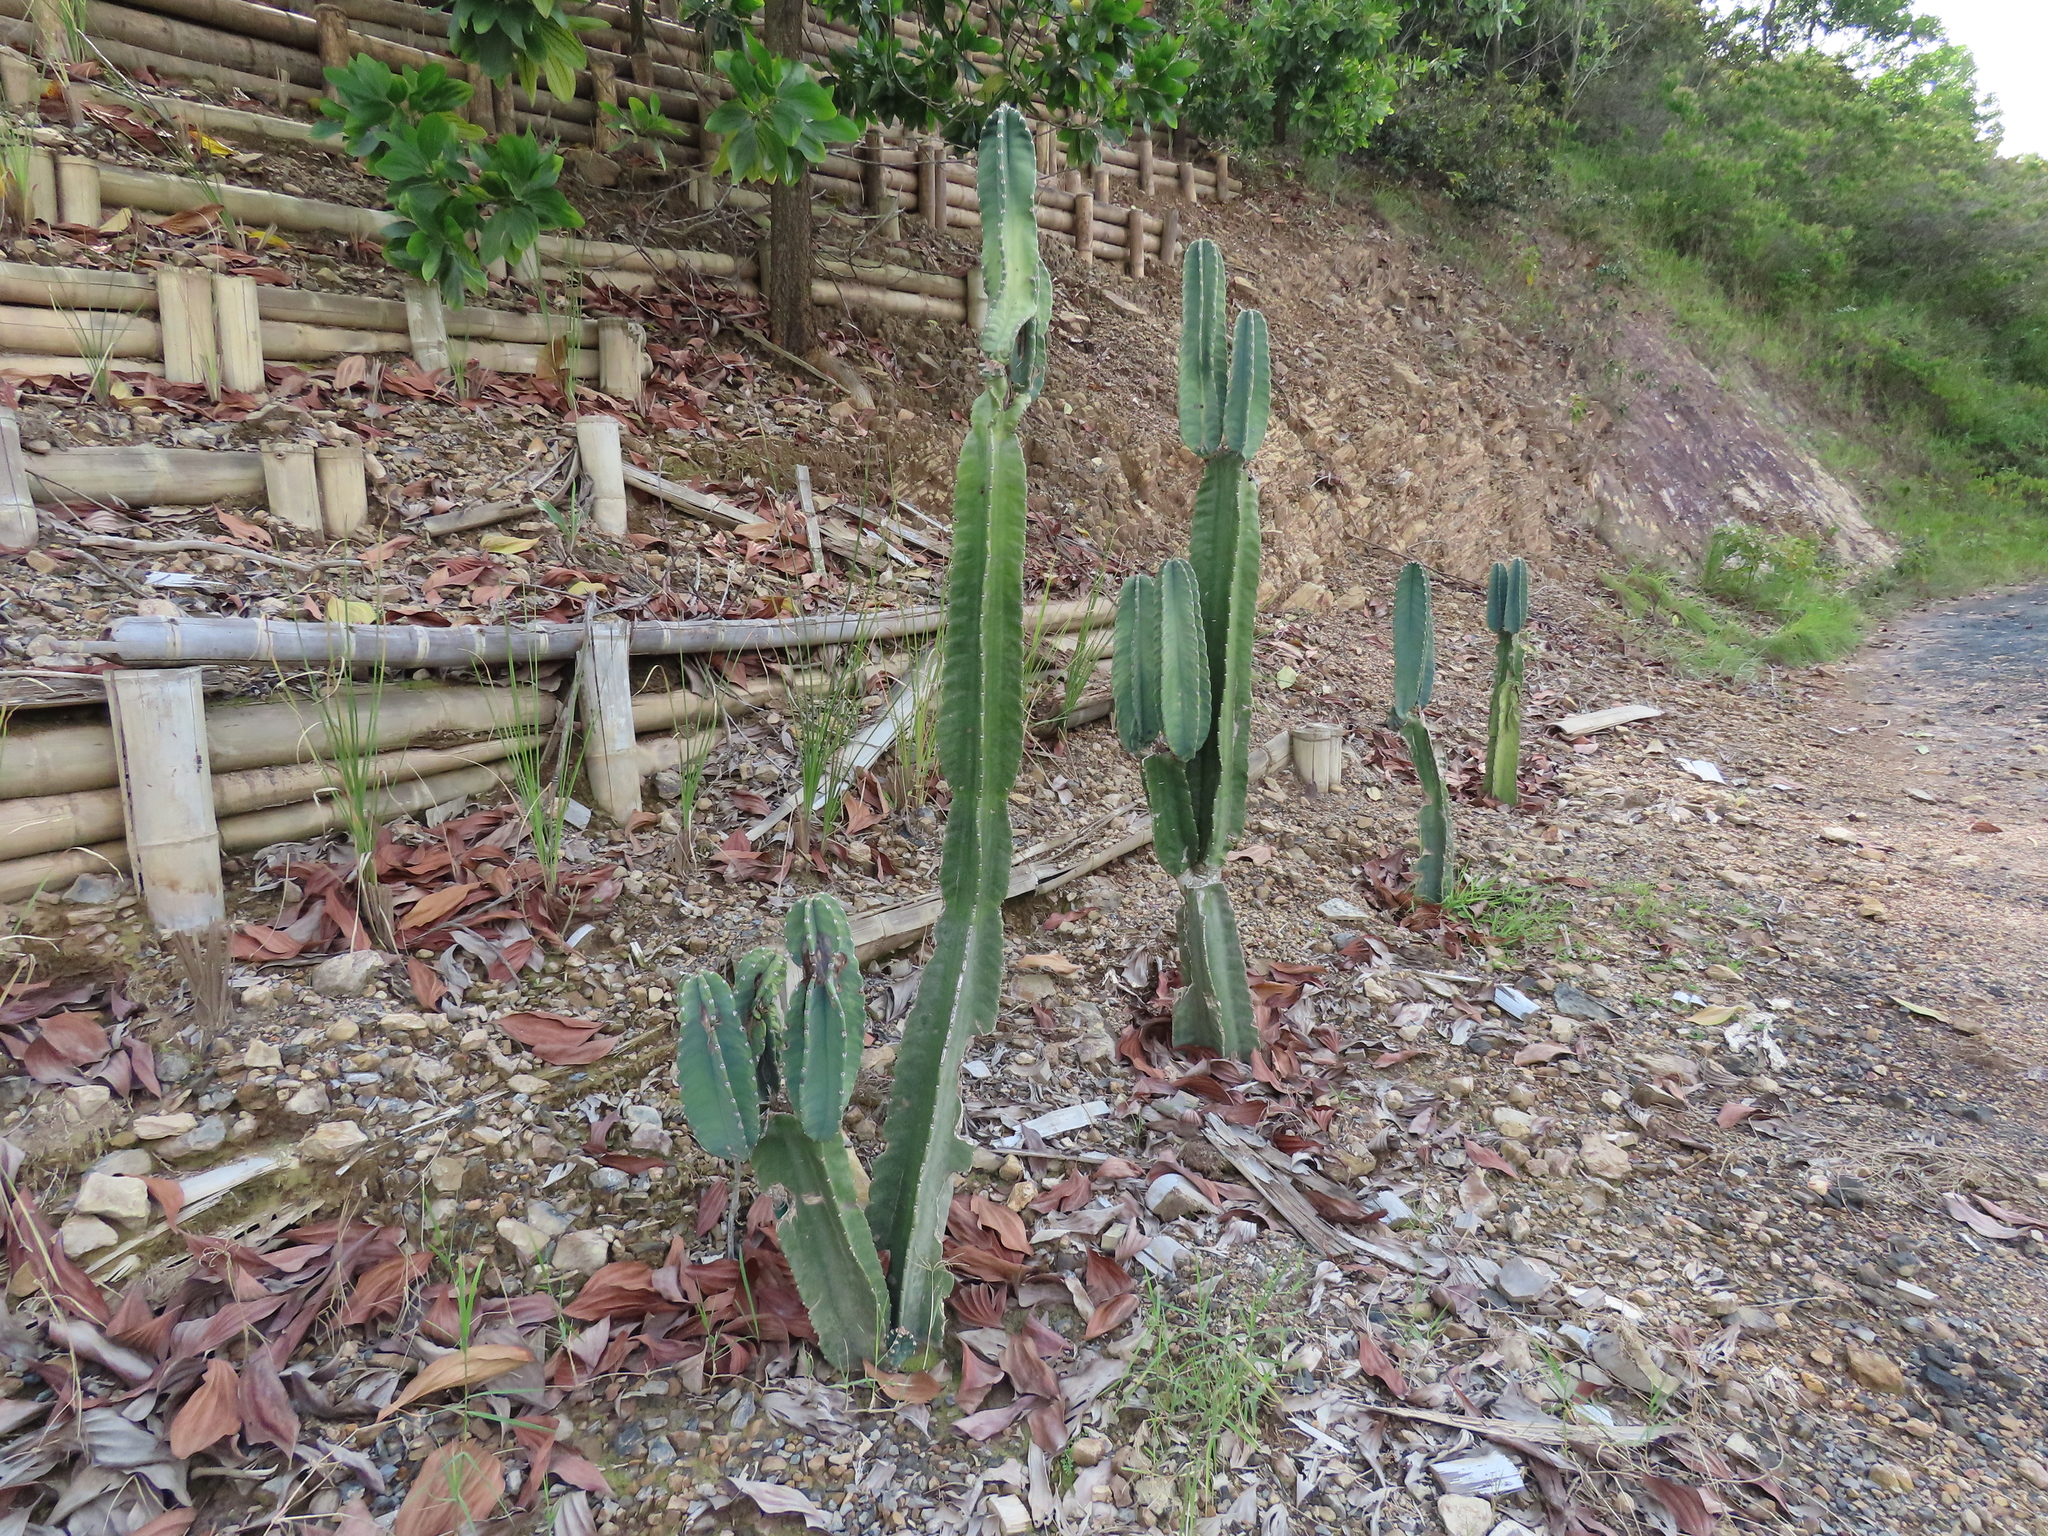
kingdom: Plantae
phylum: Tracheophyta
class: Magnoliopsida
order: Caryophyllales
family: Cactaceae
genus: Cereus
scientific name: Cereus hexagonus
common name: Lady of the night cactus
